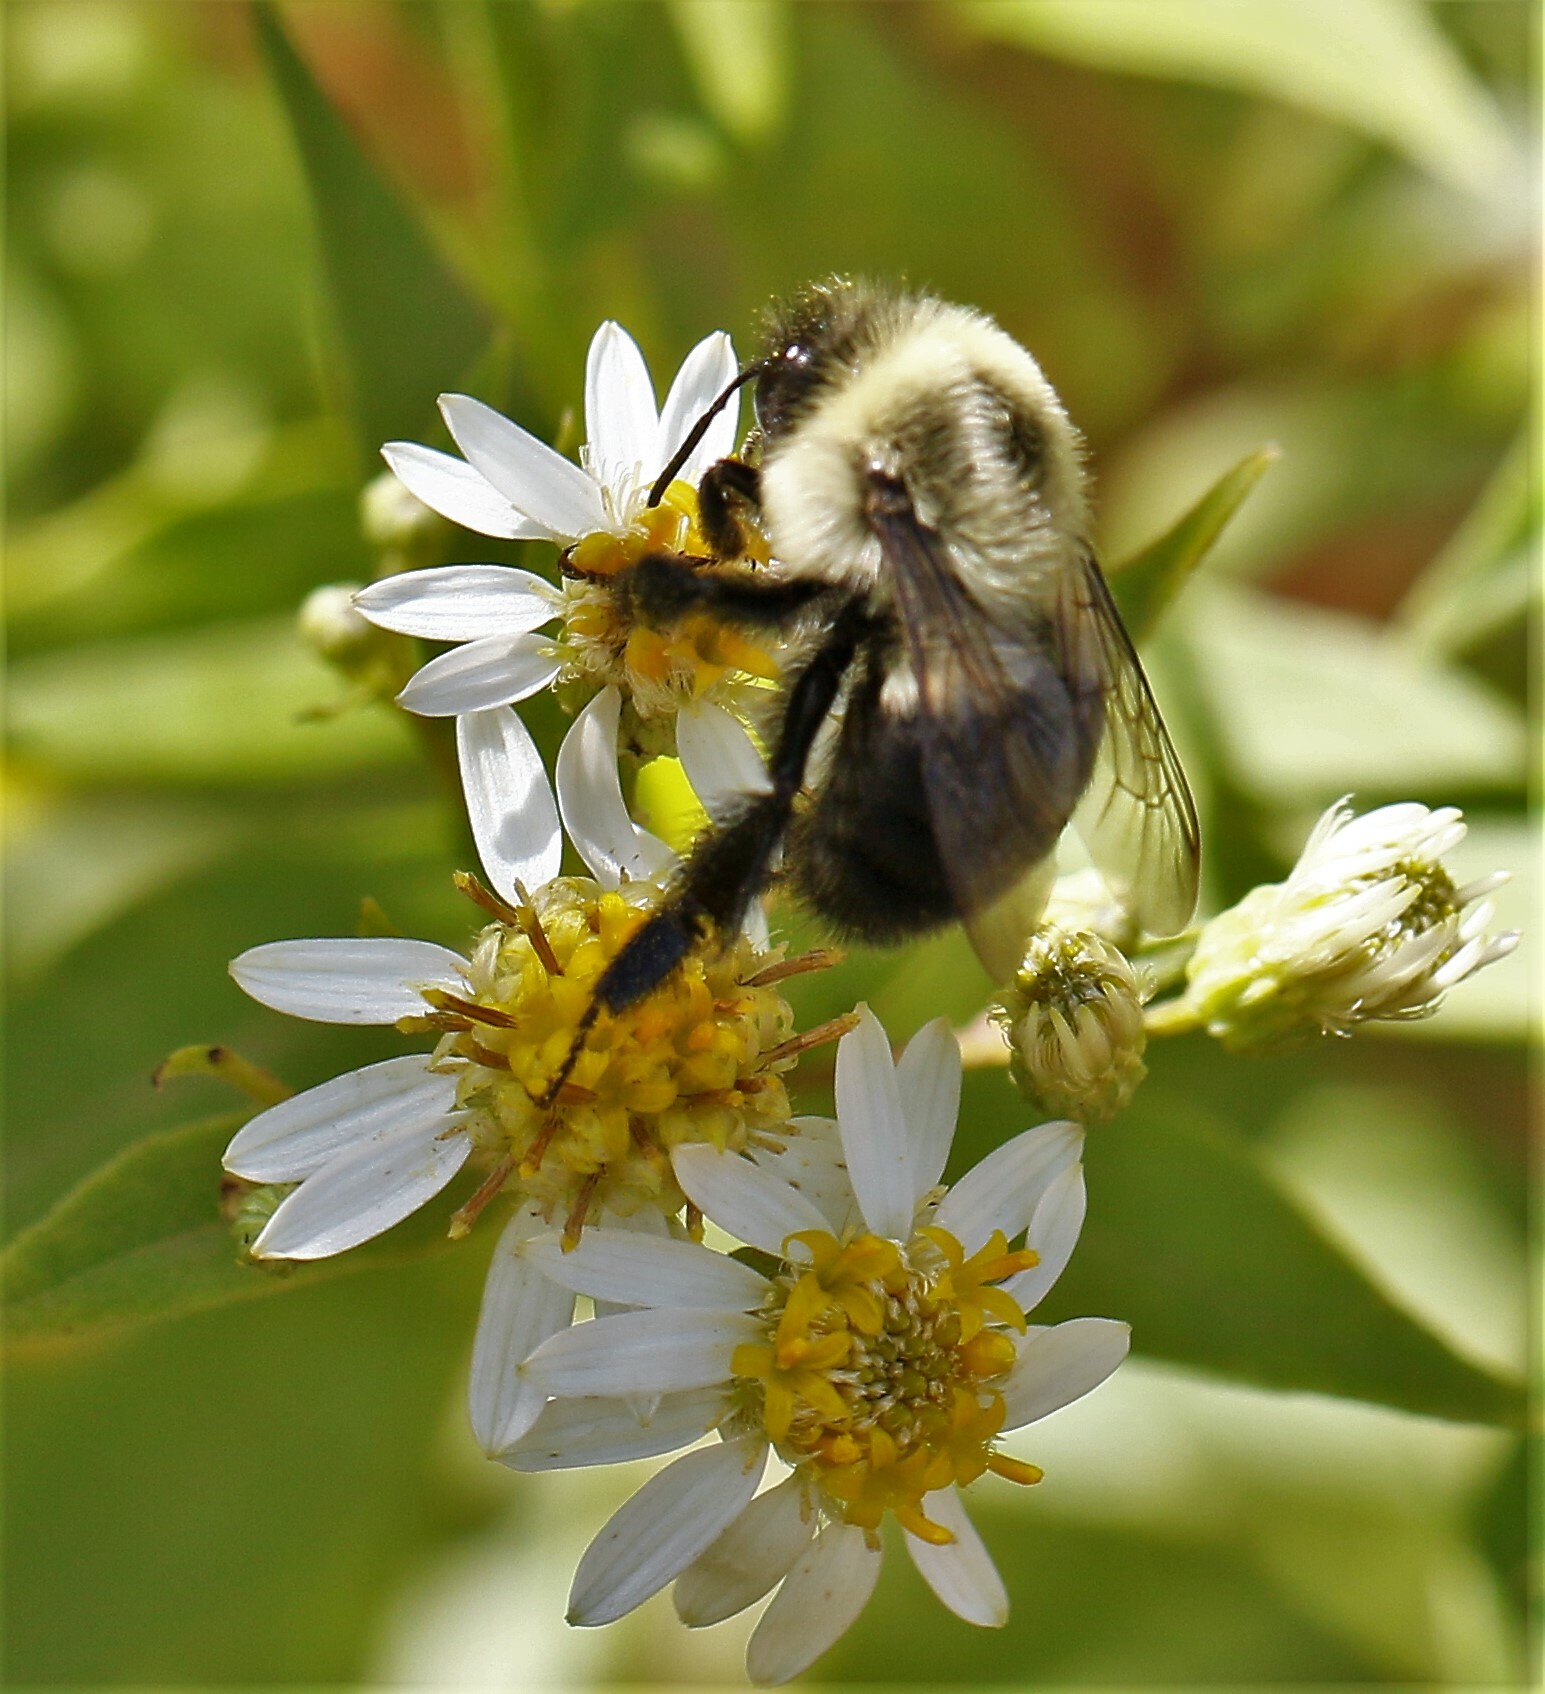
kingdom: Animalia
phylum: Arthropoda
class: Insecta
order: Hymenoptera
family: Apidae
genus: Bombus
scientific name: Bombus impatiens
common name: Common eastern bumble bee
